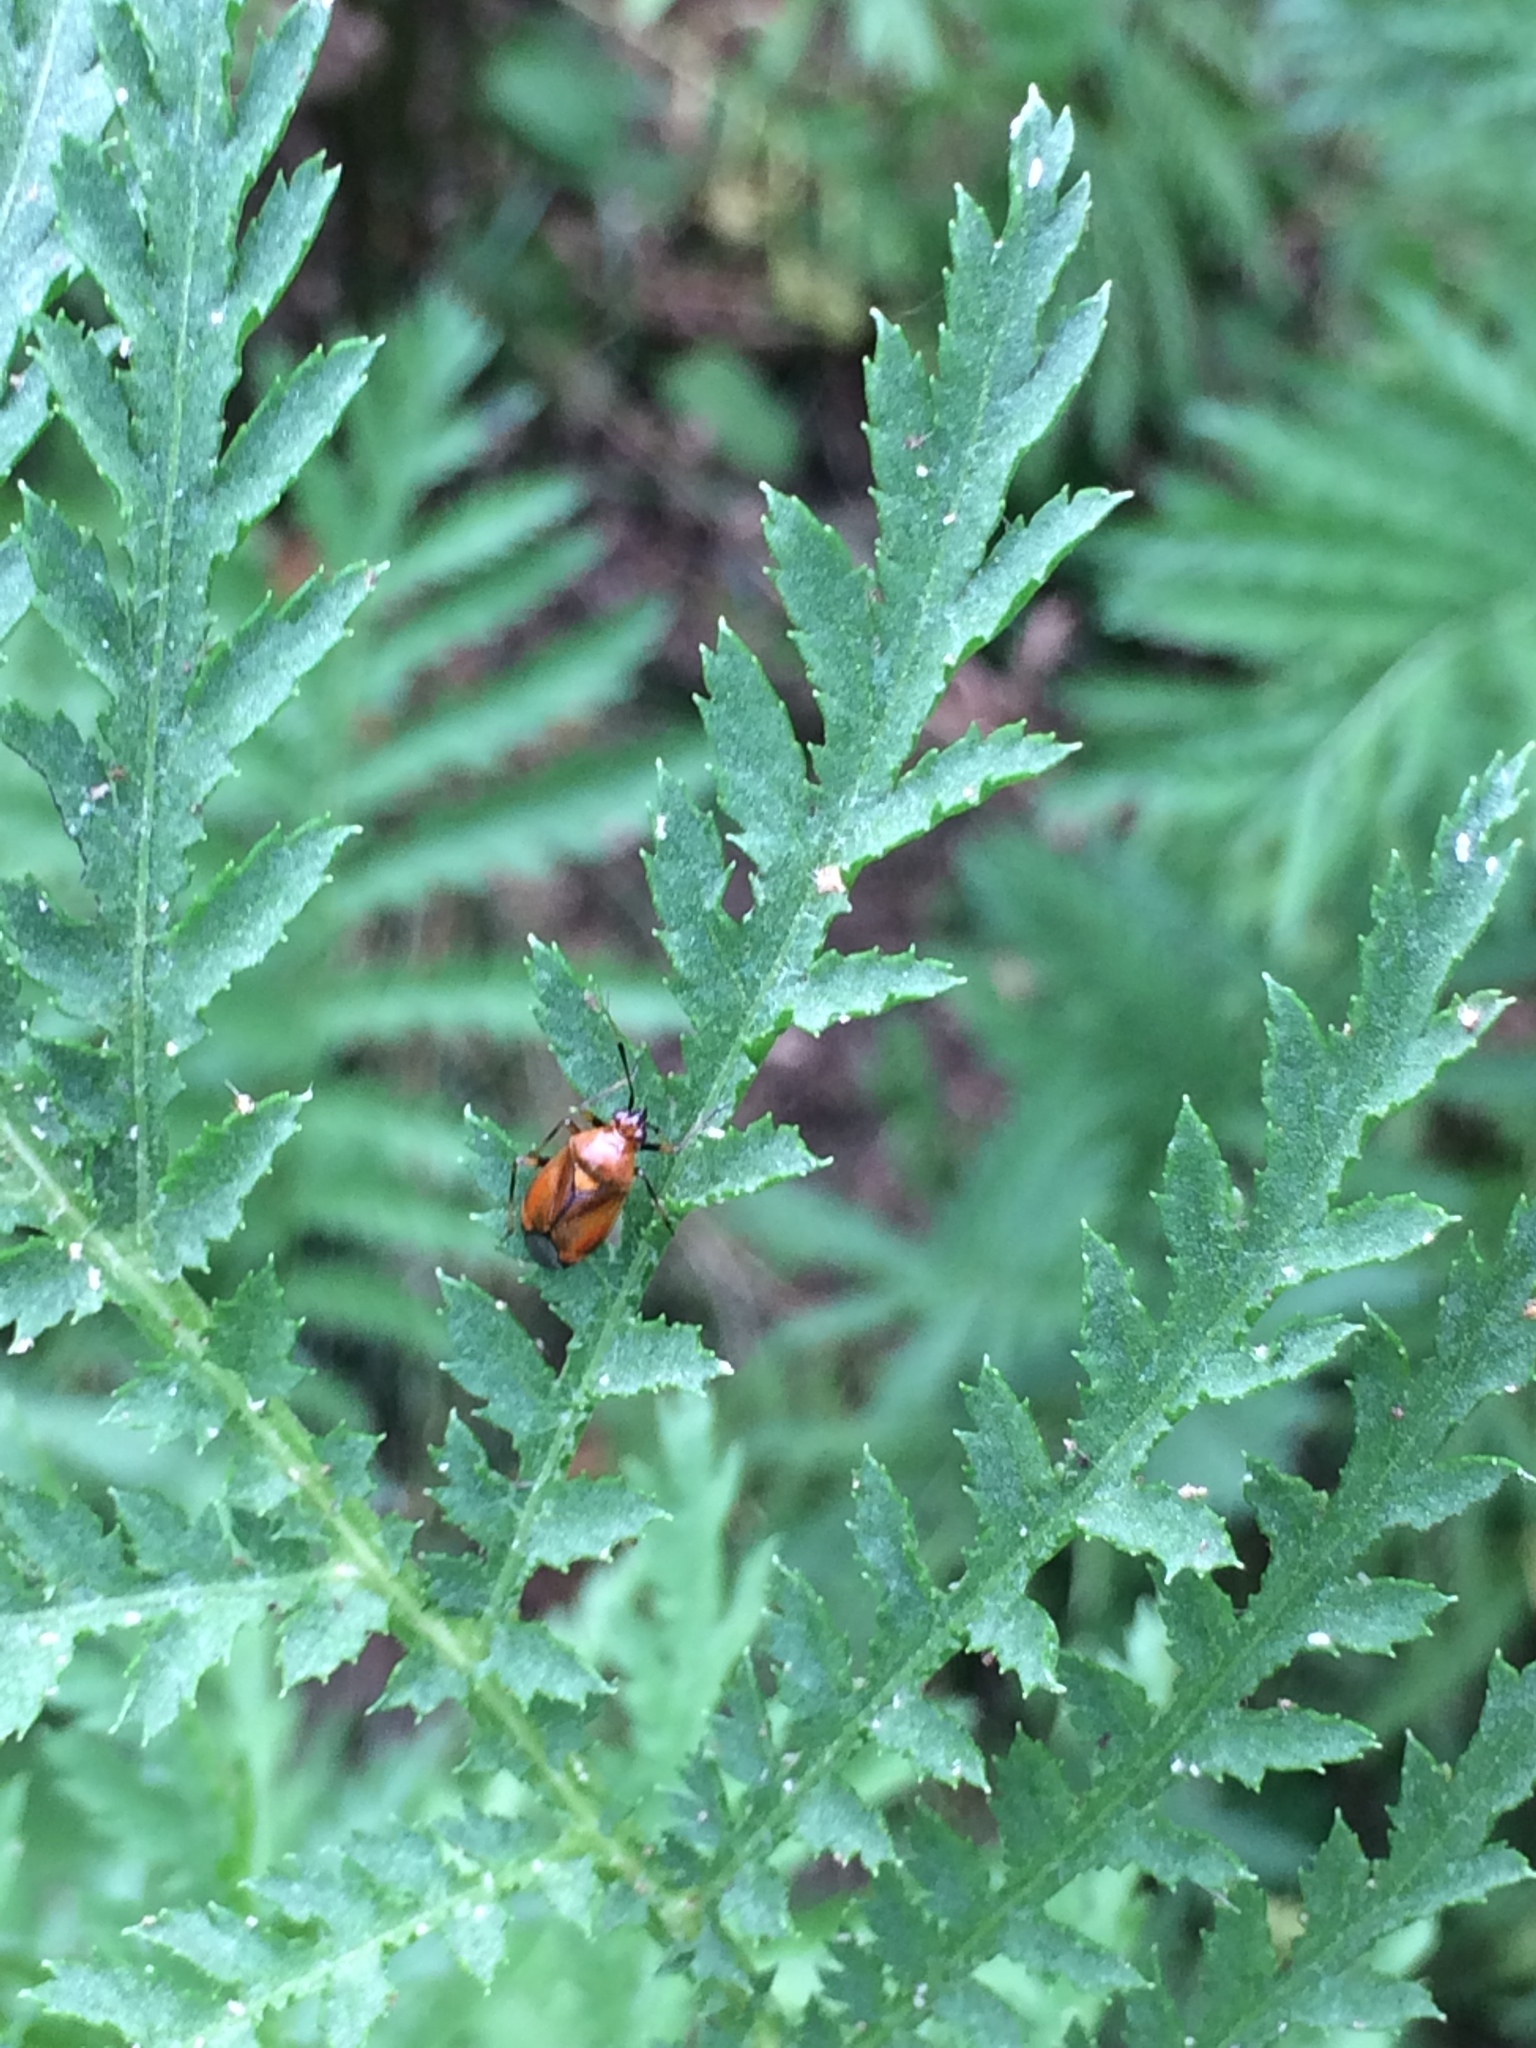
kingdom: Animalia
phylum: Arthropoda
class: Insecta
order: Hemiptera
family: Miridae
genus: Deraeocoris
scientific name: Deraeocoris ruber
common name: Plant bug
